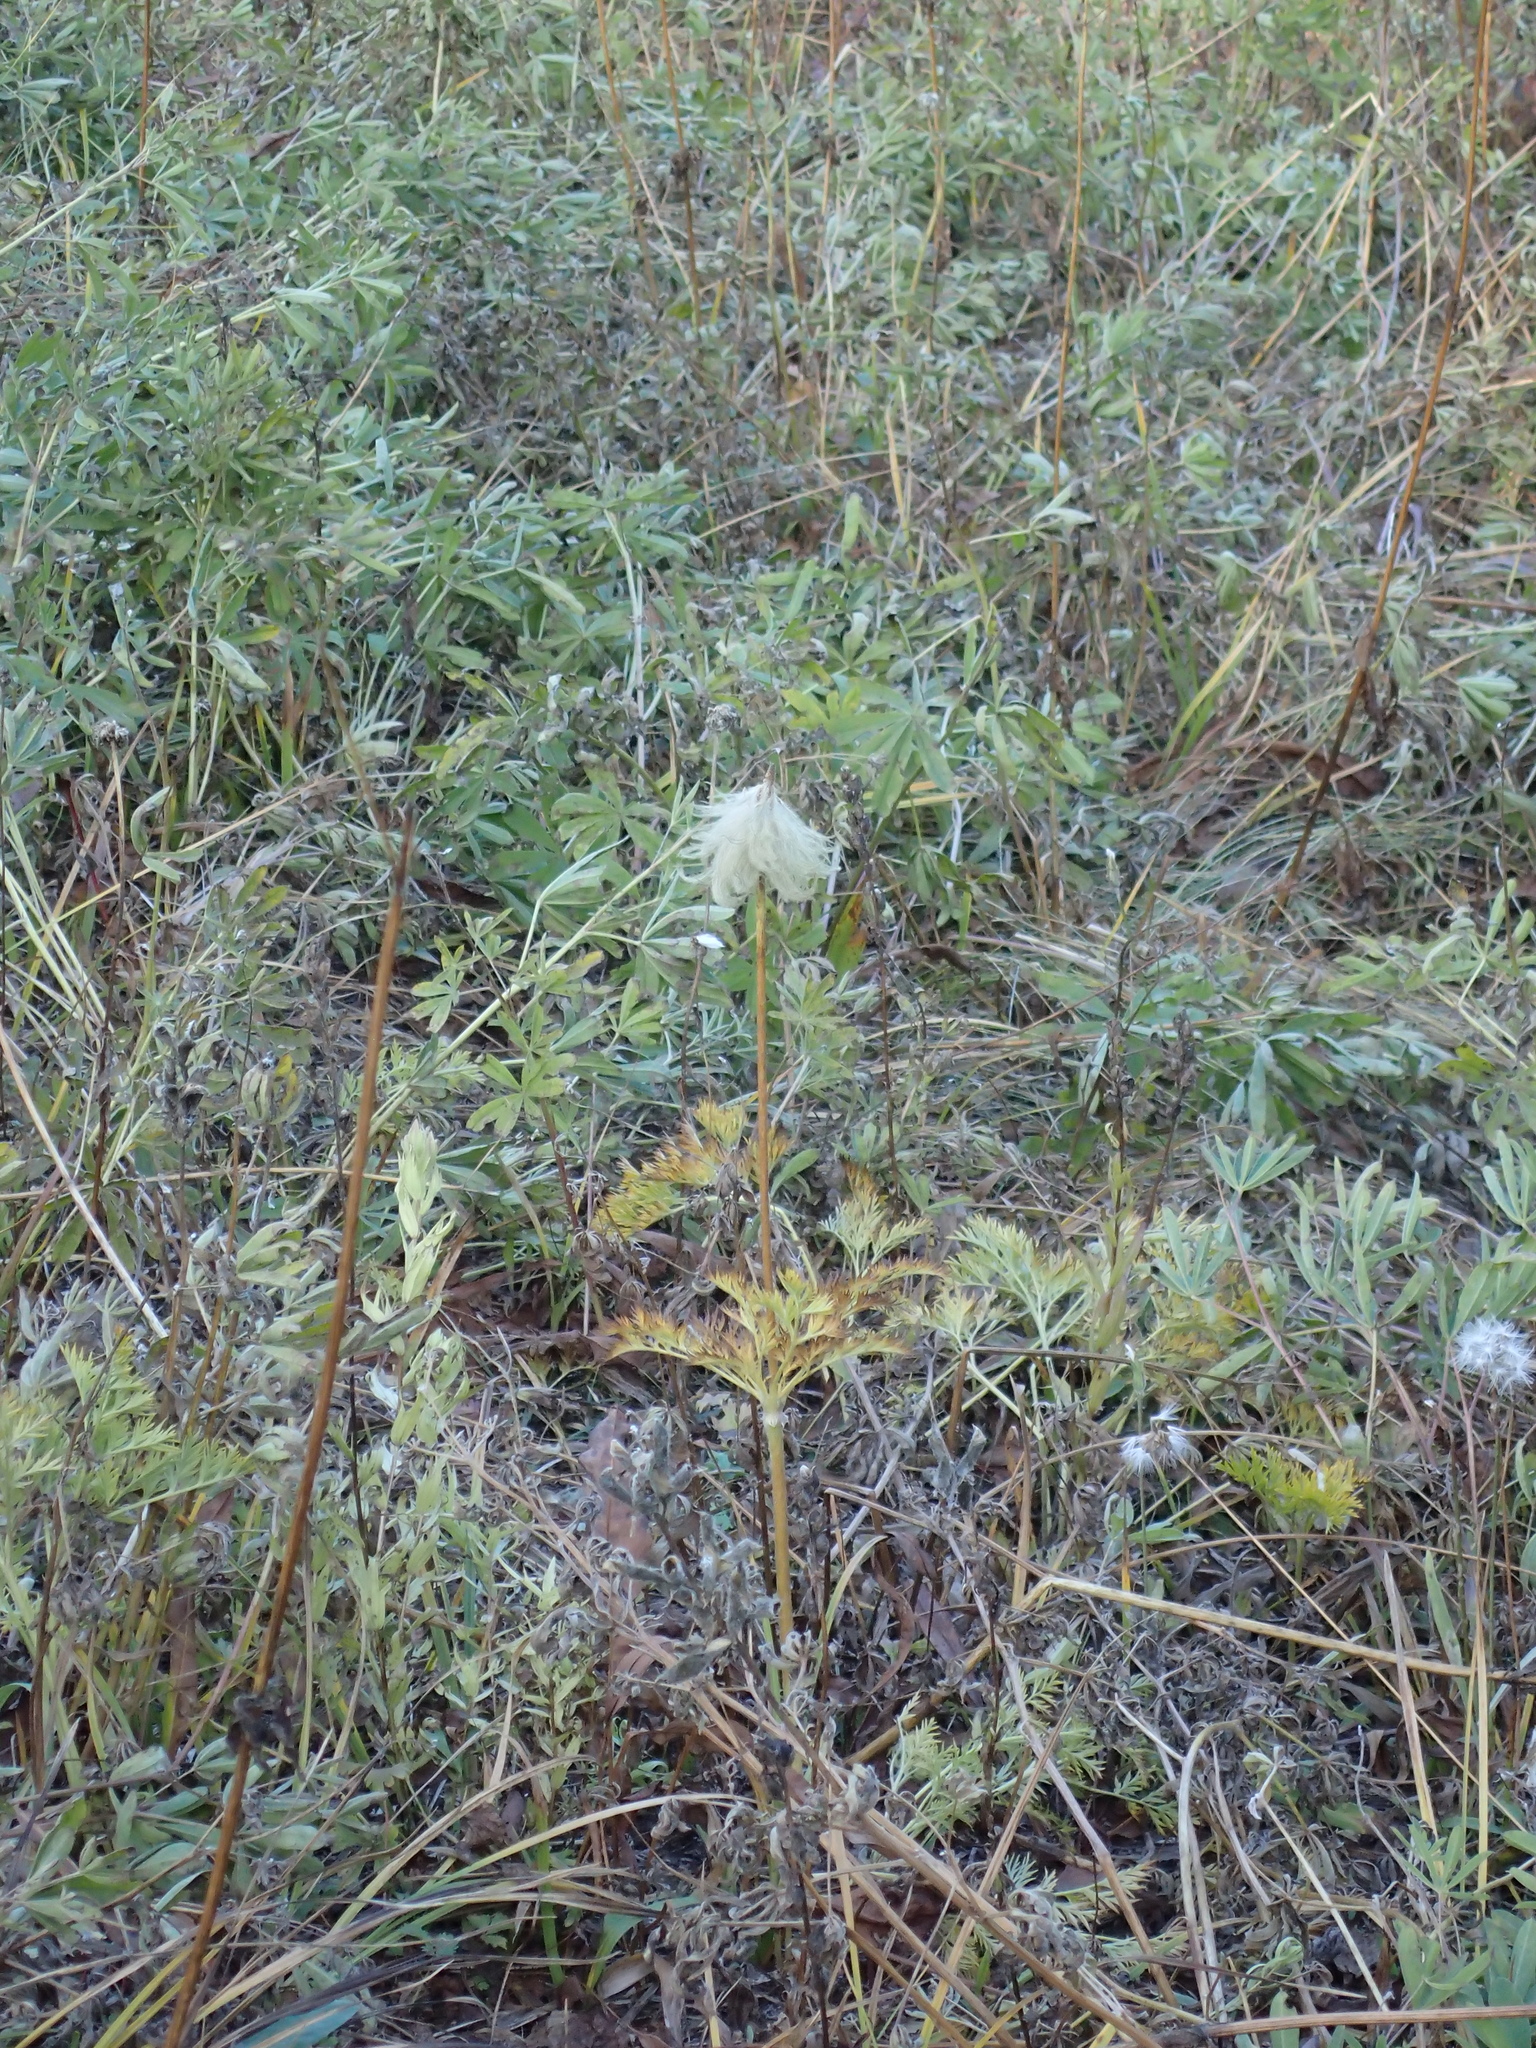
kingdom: Plantae
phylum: Tracheophyta
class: Magnoliopsida
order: Ranunculales
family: Ranunculaceae
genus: Pulsatilla
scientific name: Pulsatilla occidentalis
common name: Mountain pasqueflower
